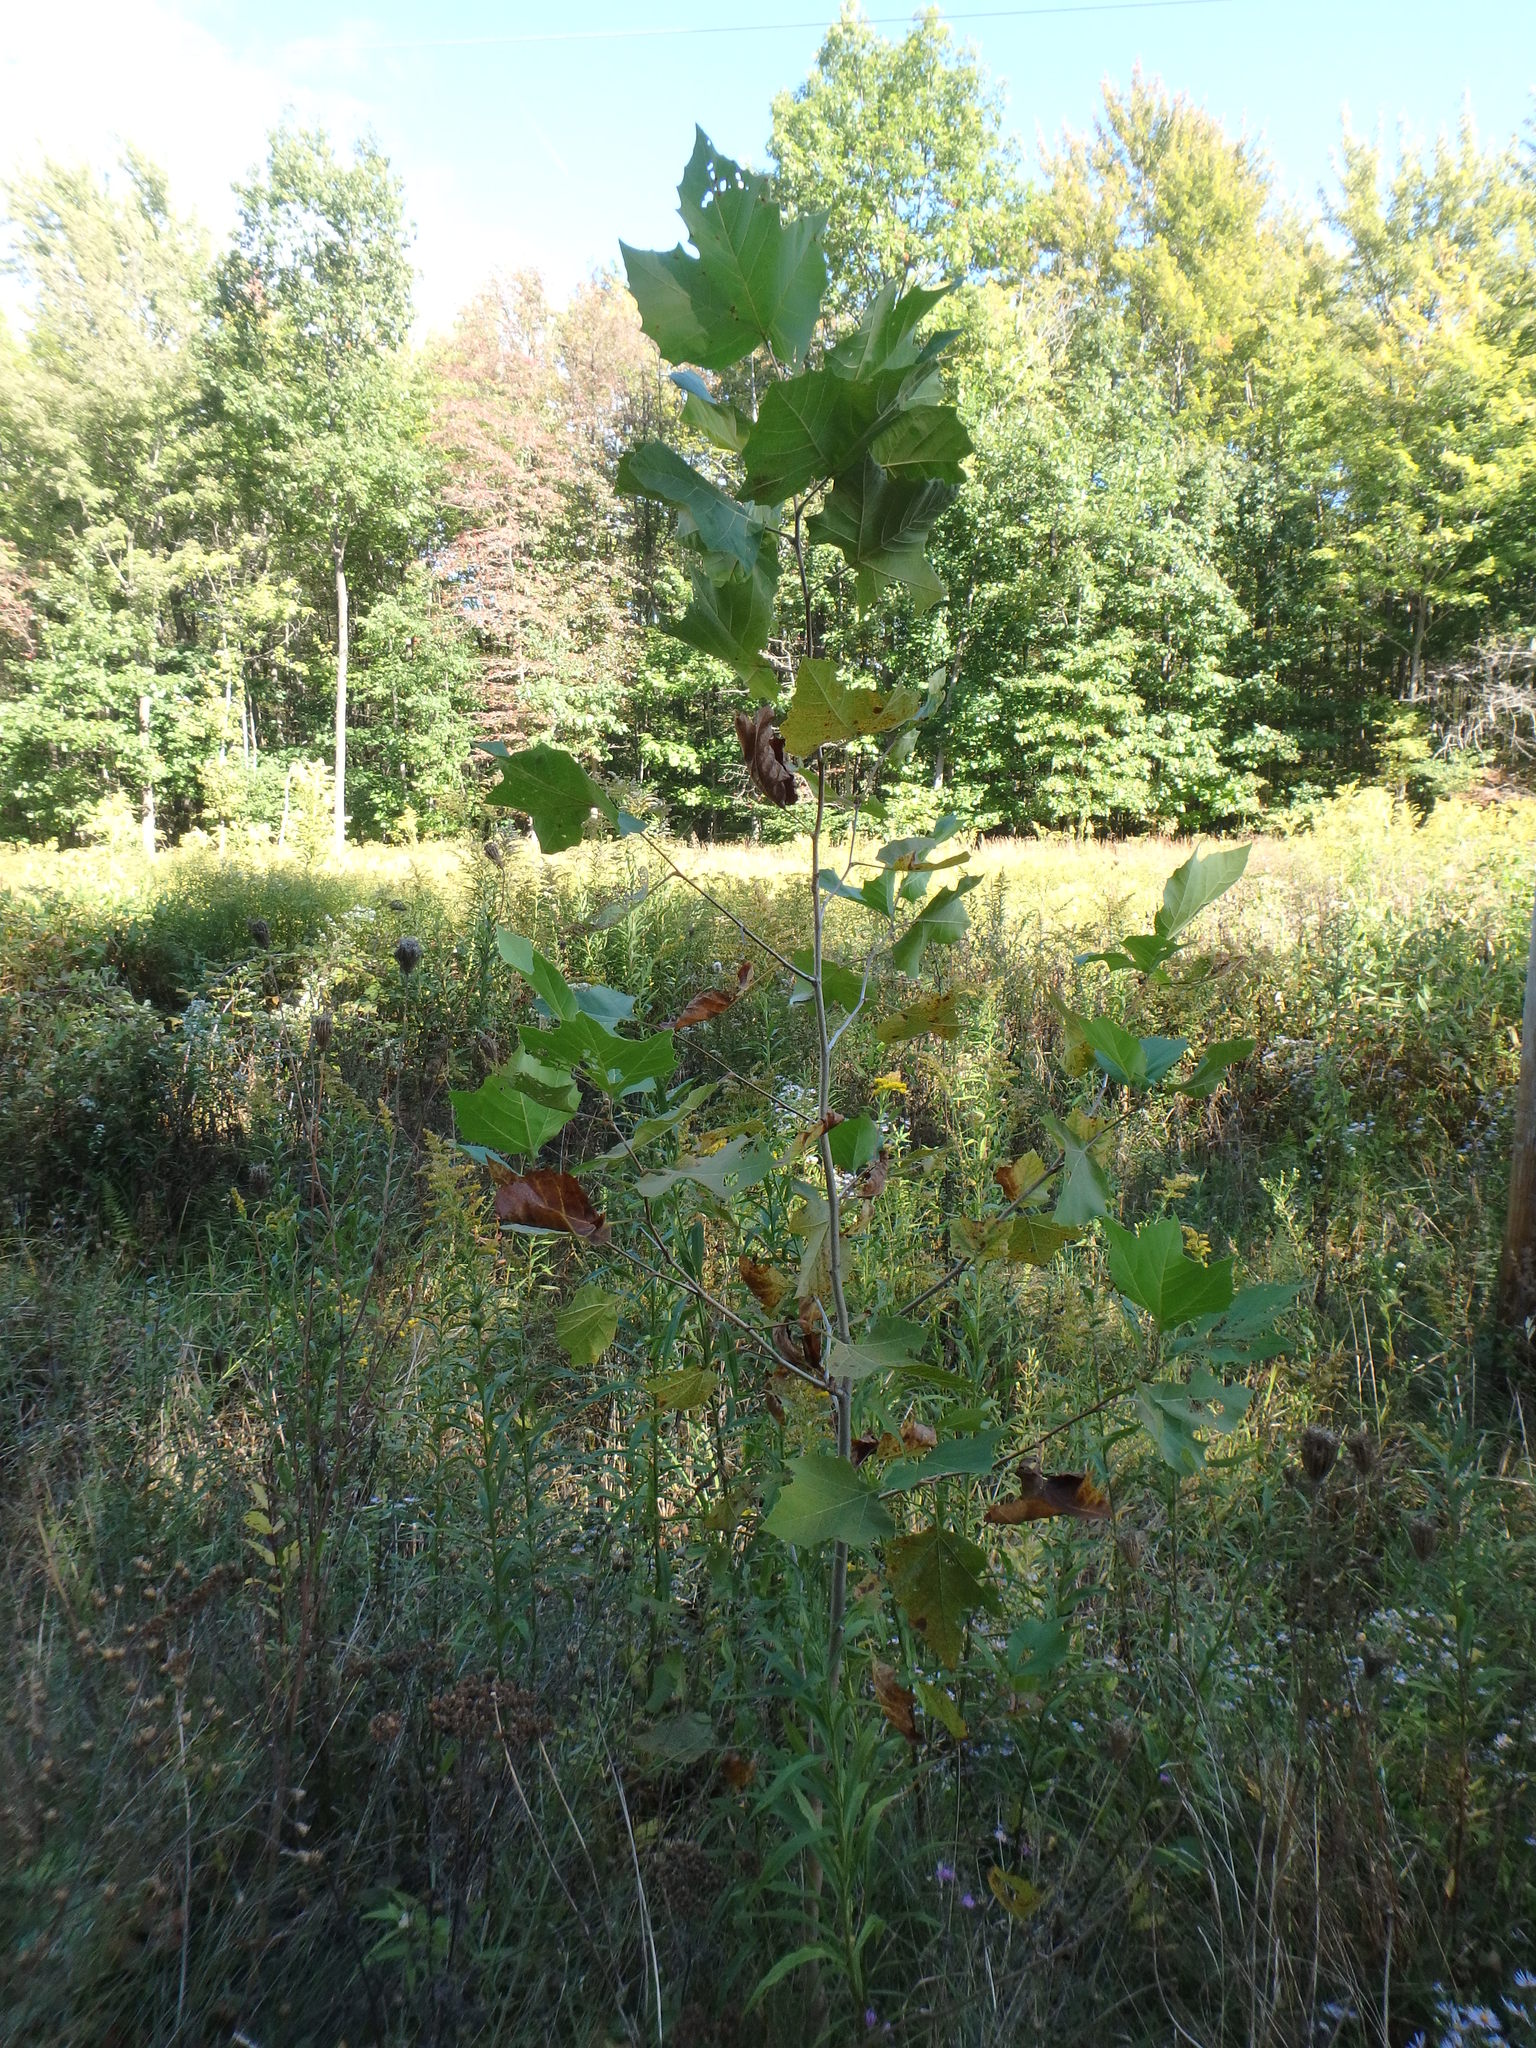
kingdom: Plantae
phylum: Tracheophyta
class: Magnoliopsida
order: Proteales
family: Platanaceae
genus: Platanus
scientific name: Platanus occidentalis
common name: American sycamore
